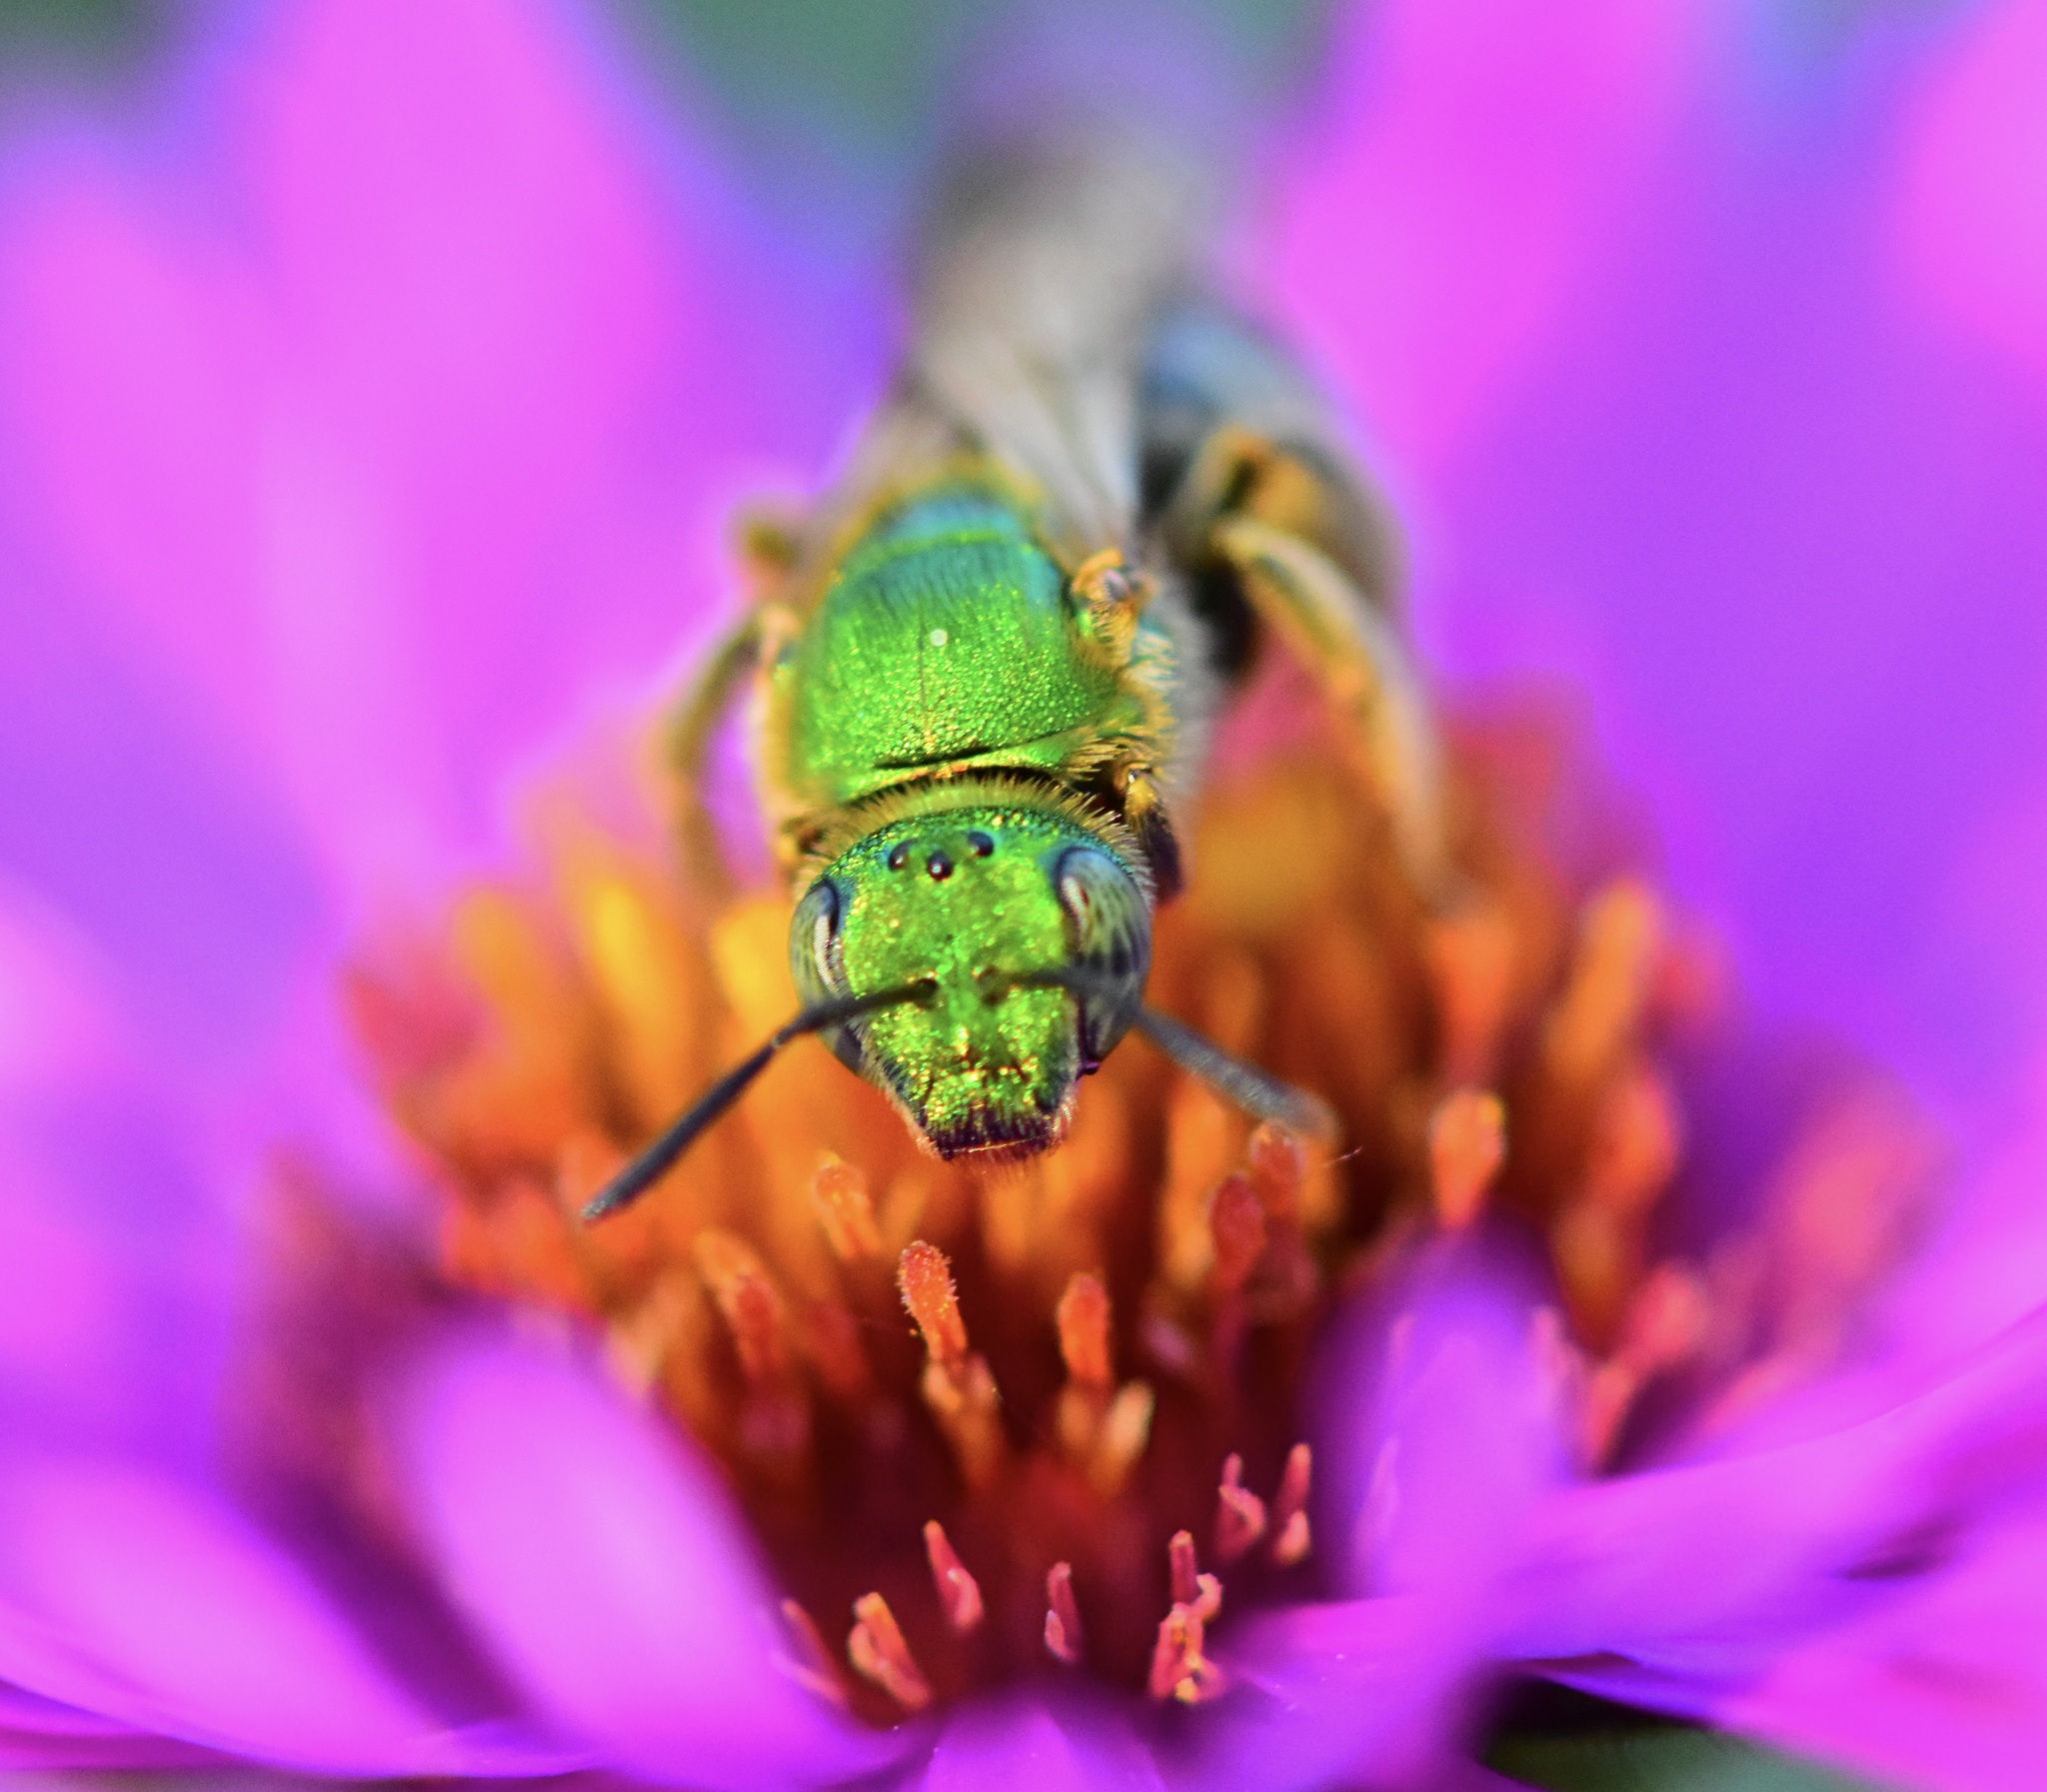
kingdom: Animalia
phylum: Arthropoda
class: Insecta
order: Hymenoptera
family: Halictidae
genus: Agapostemon
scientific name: Agapostemon virescens
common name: Bicolored striped sweat bee
